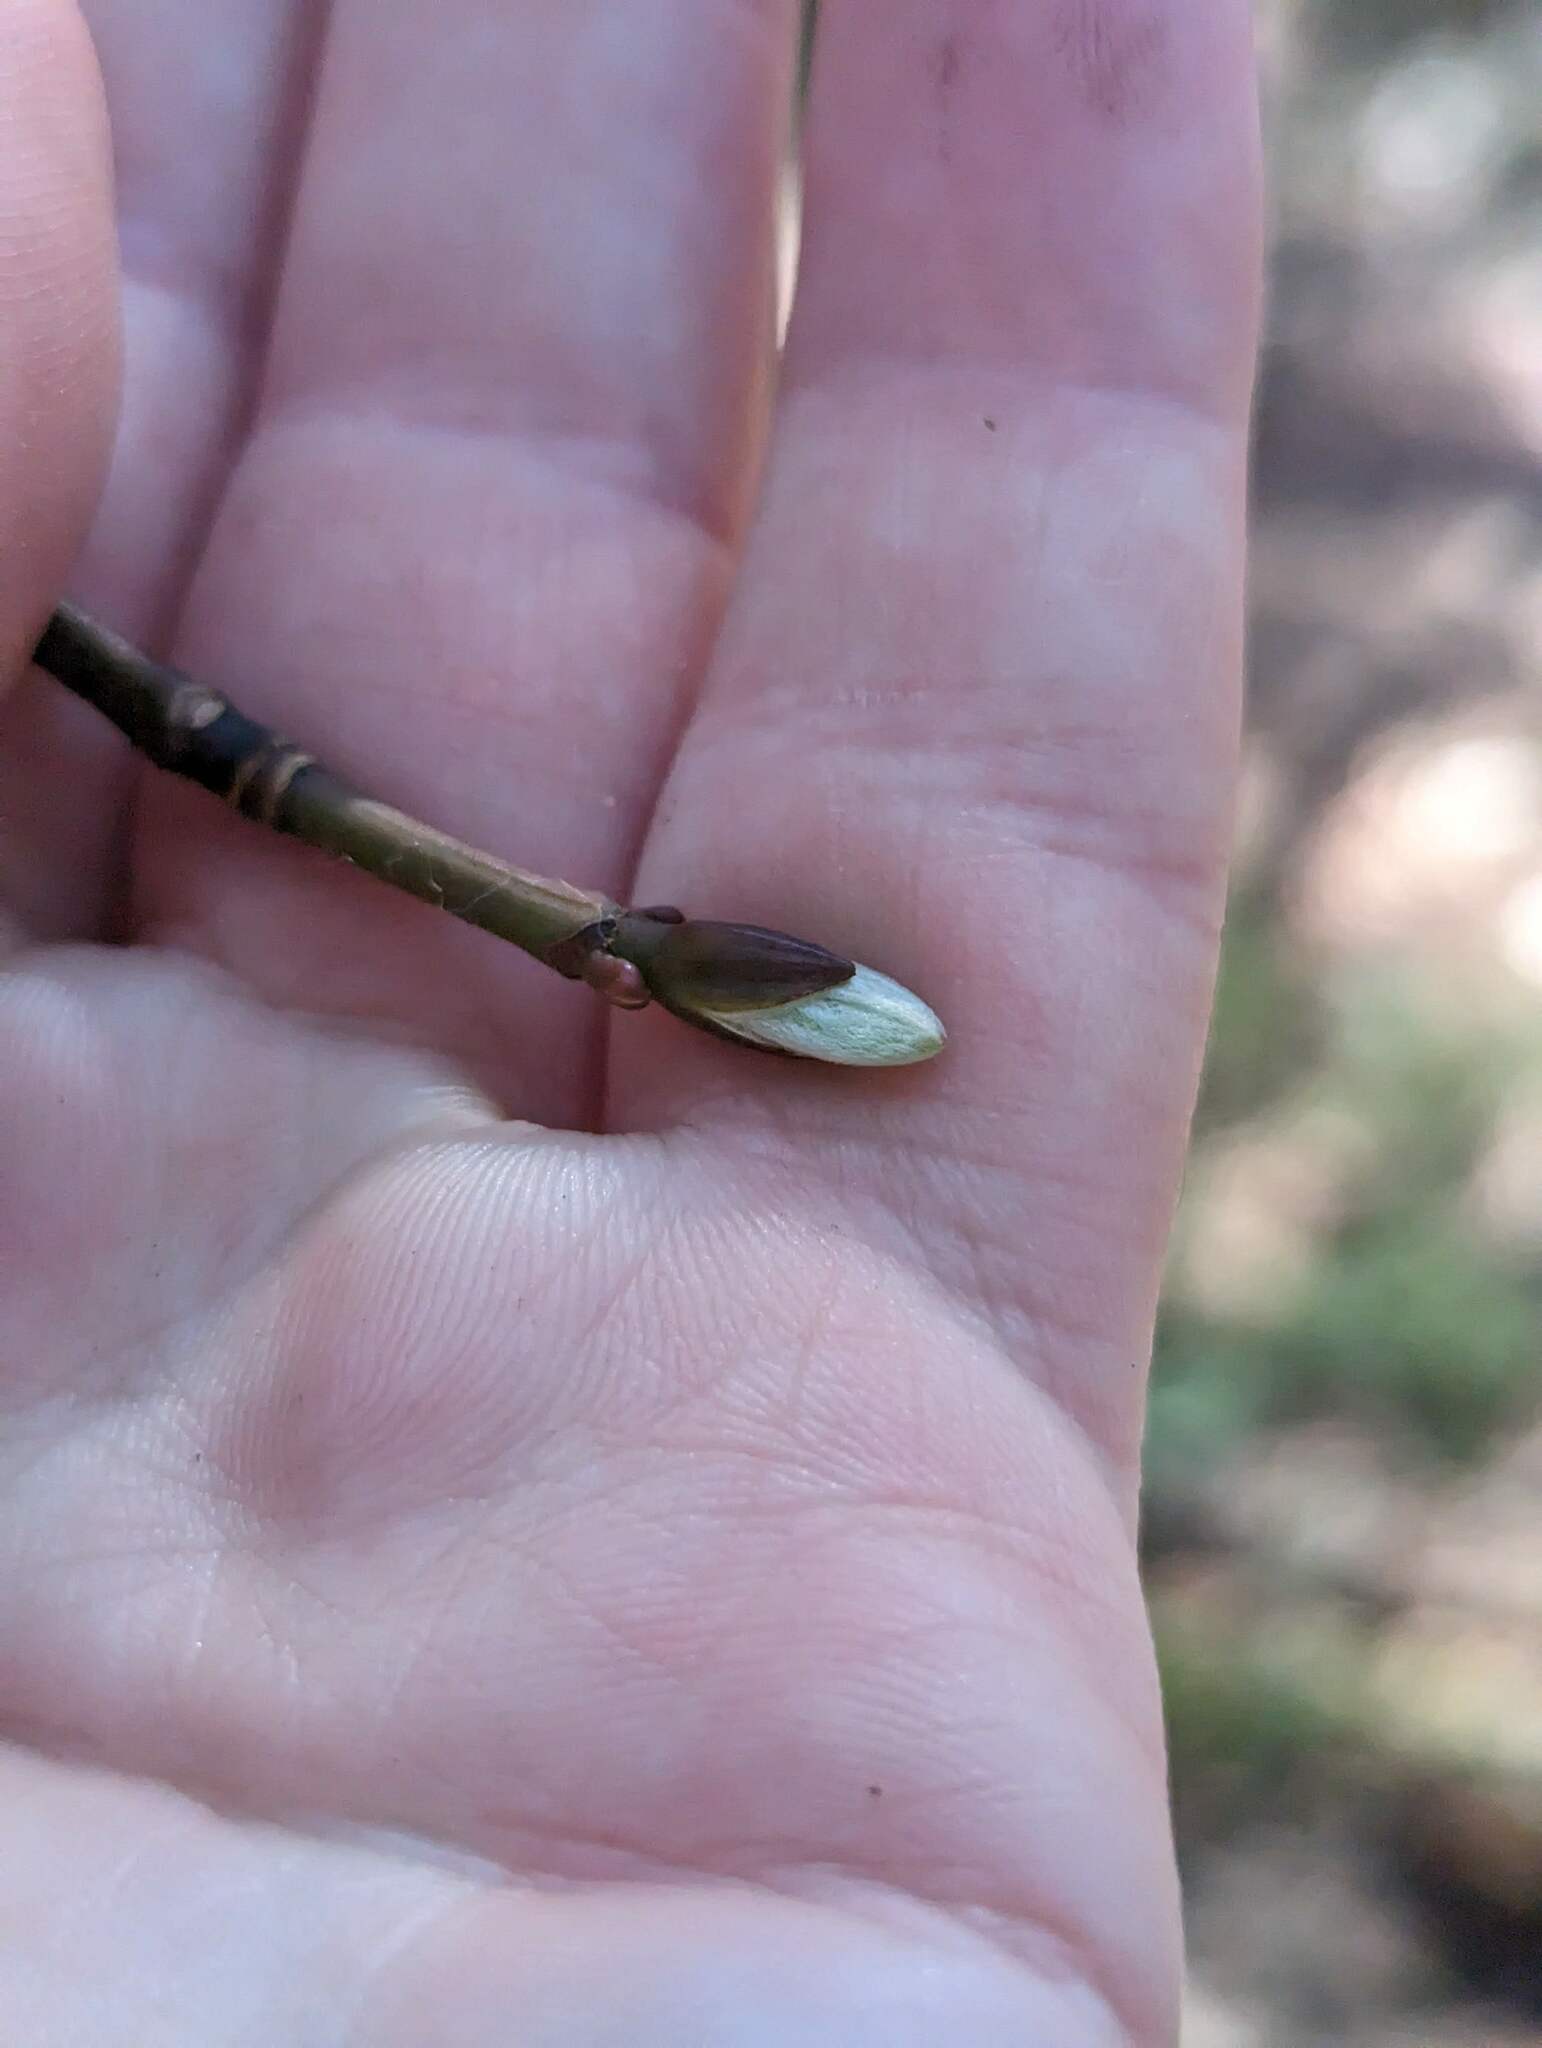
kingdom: Plantae
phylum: Tracheophyta
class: Magnoliopsida
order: Sapindales
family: Sapindaceae
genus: Acer
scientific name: Acer pensylvanicum
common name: Moosewood
